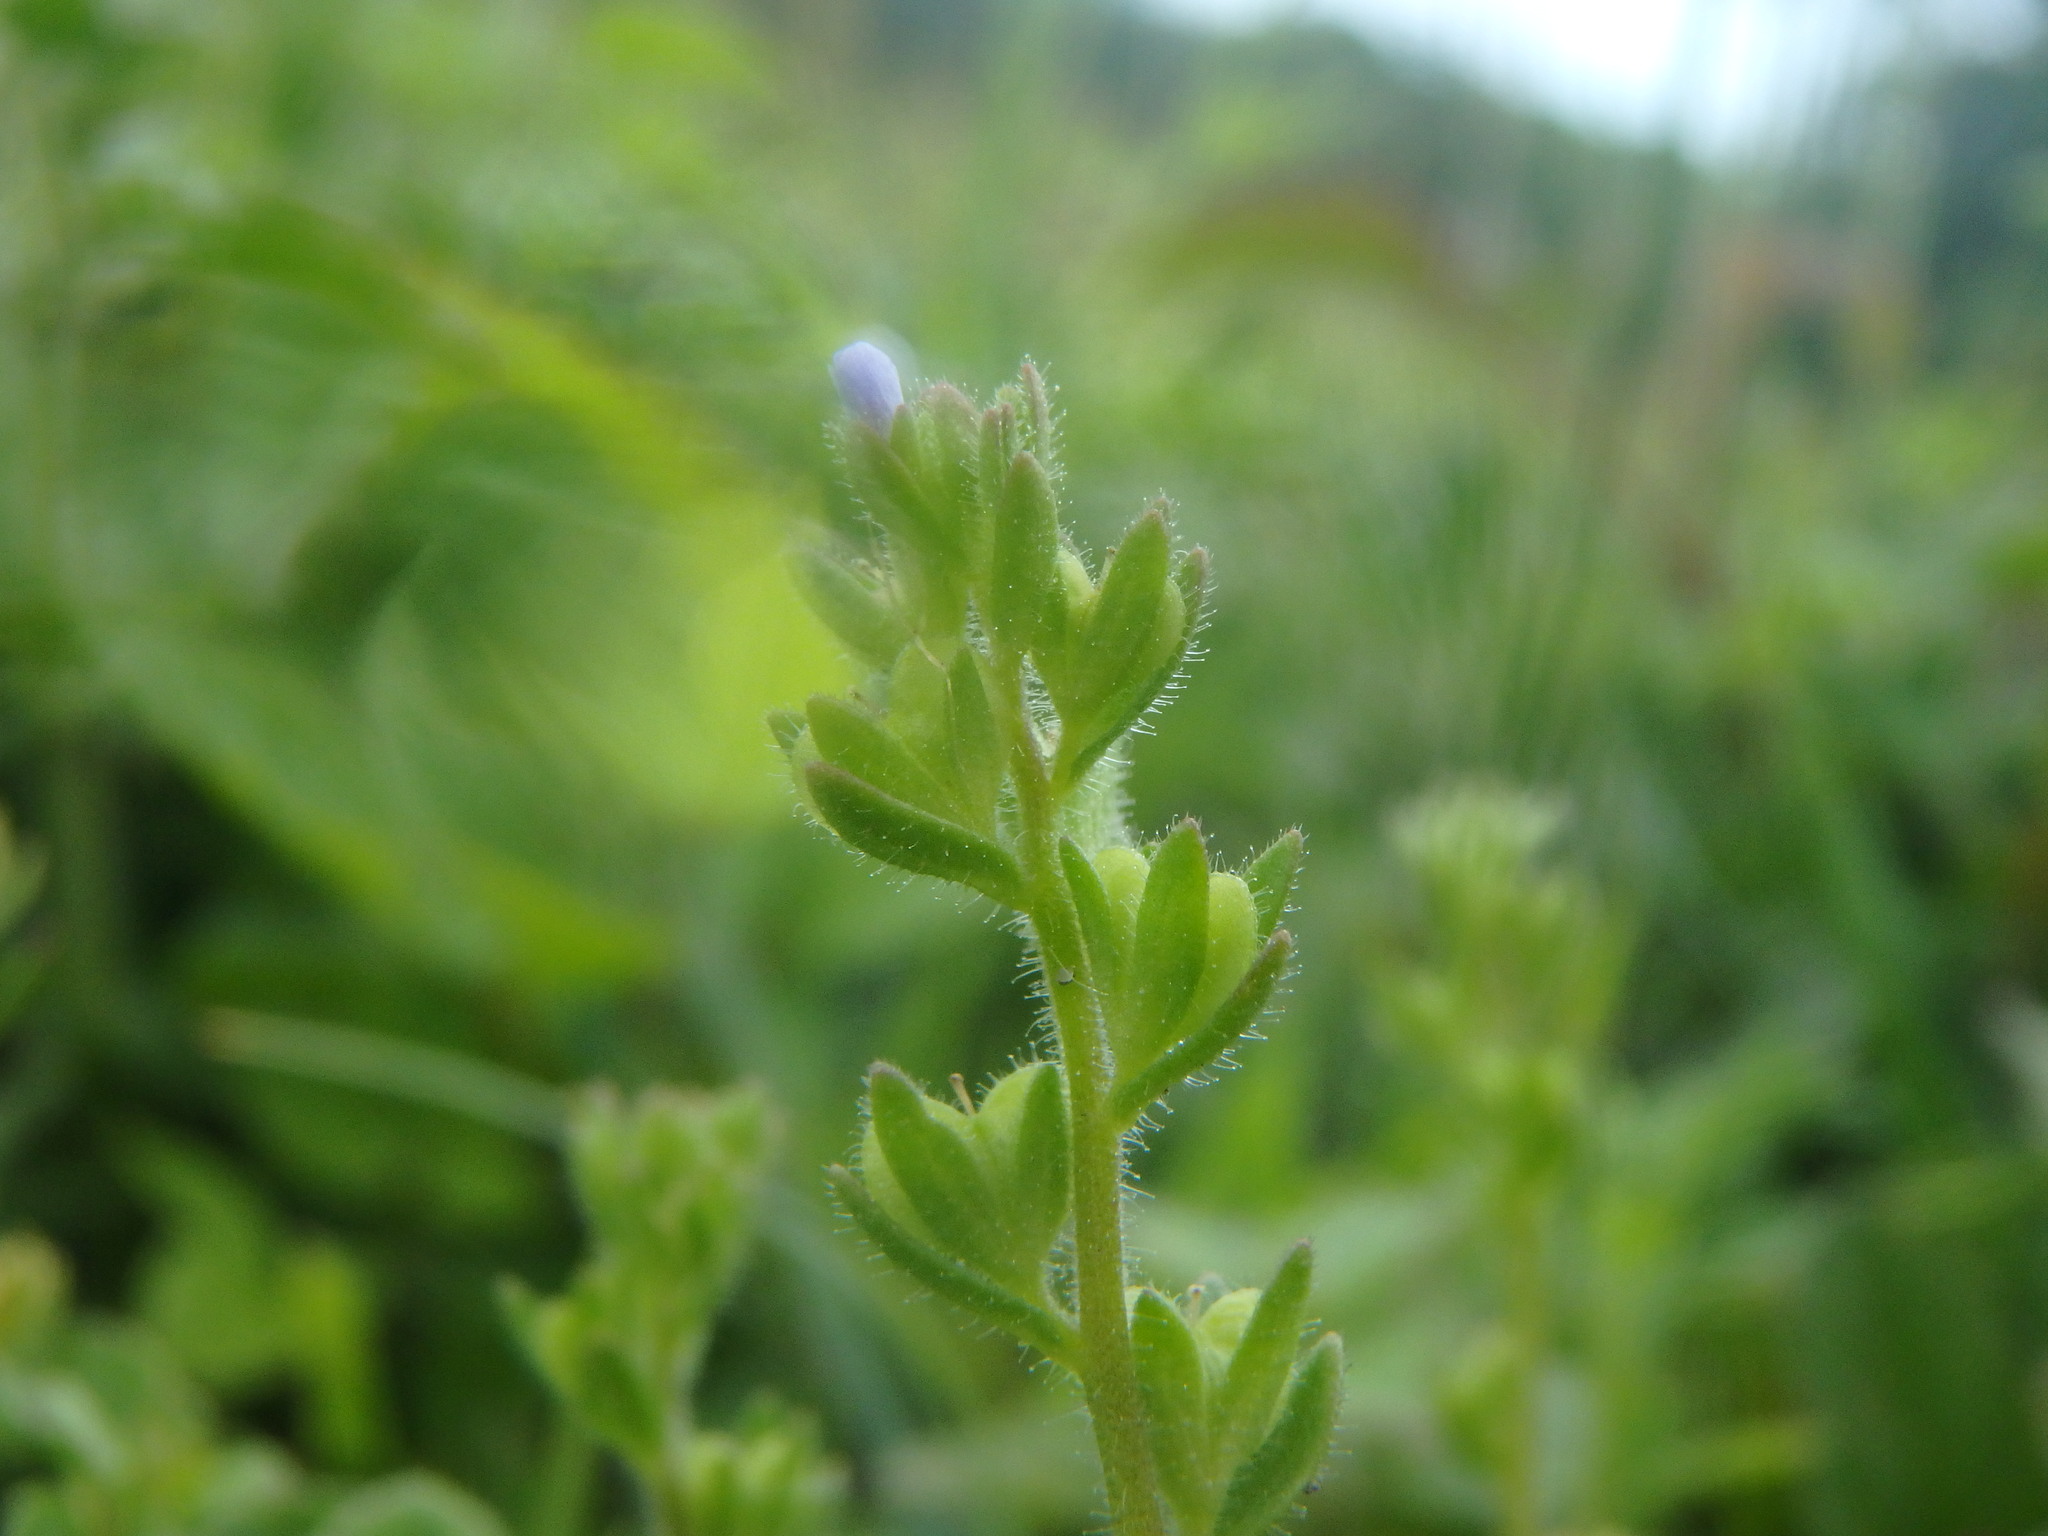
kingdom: Plantae
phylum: Tracheophyta
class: Magnoliopsida
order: Lamiales
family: Plantaginaceae
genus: Veronica
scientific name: Veronica arvensis
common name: Corn speedwell
